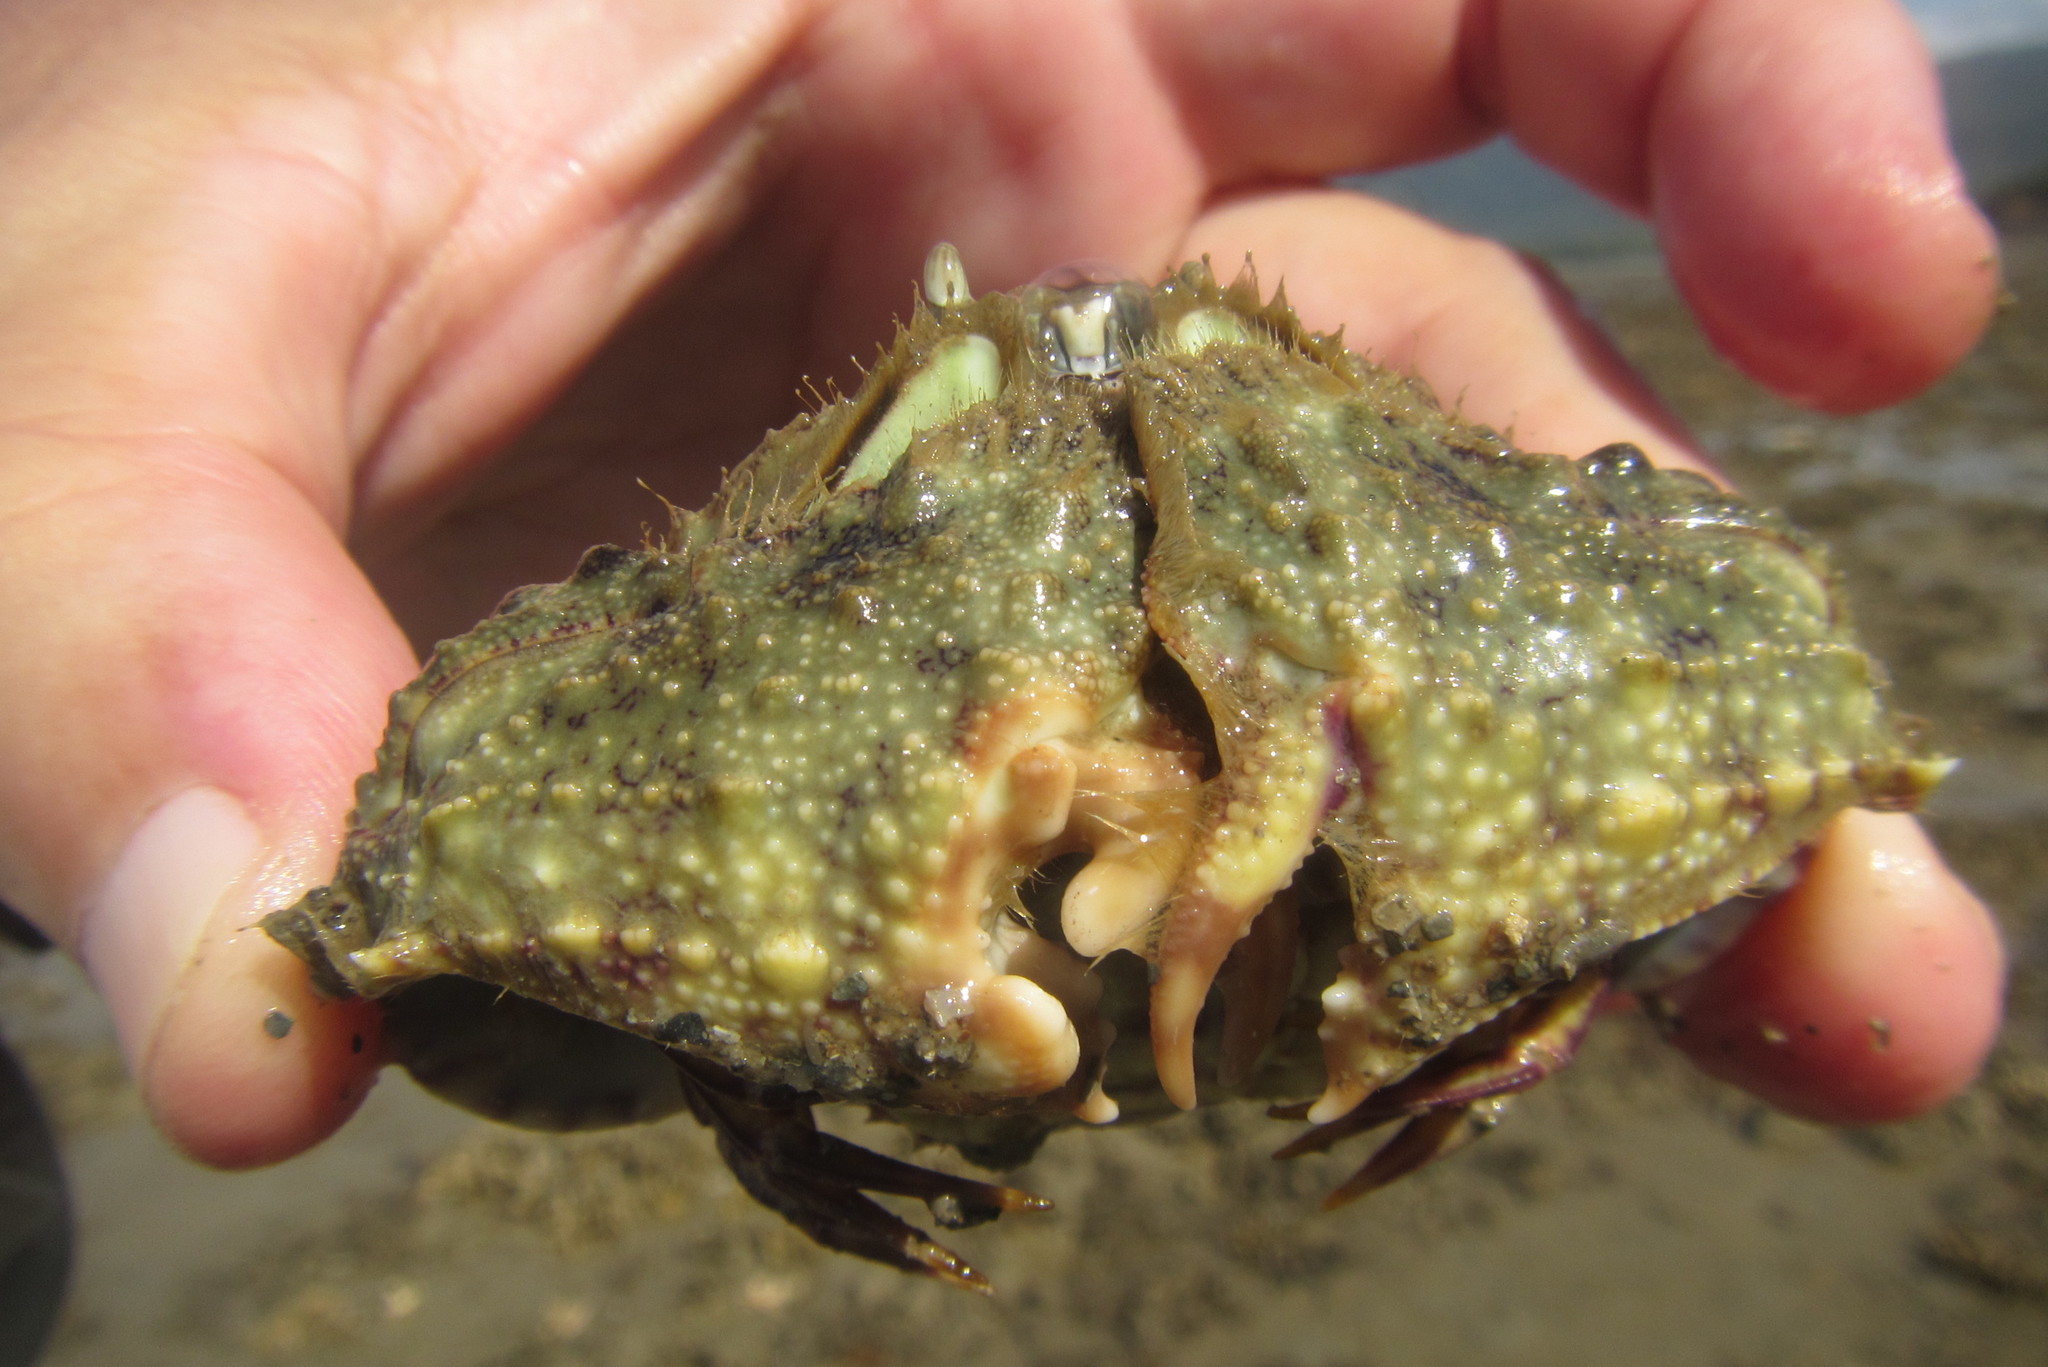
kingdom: Animalia
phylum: Arthropoda
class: Malacostraca
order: Decapoda
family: Calappidae
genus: Calappa
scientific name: Calappa hepatica
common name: Smooth box crab
